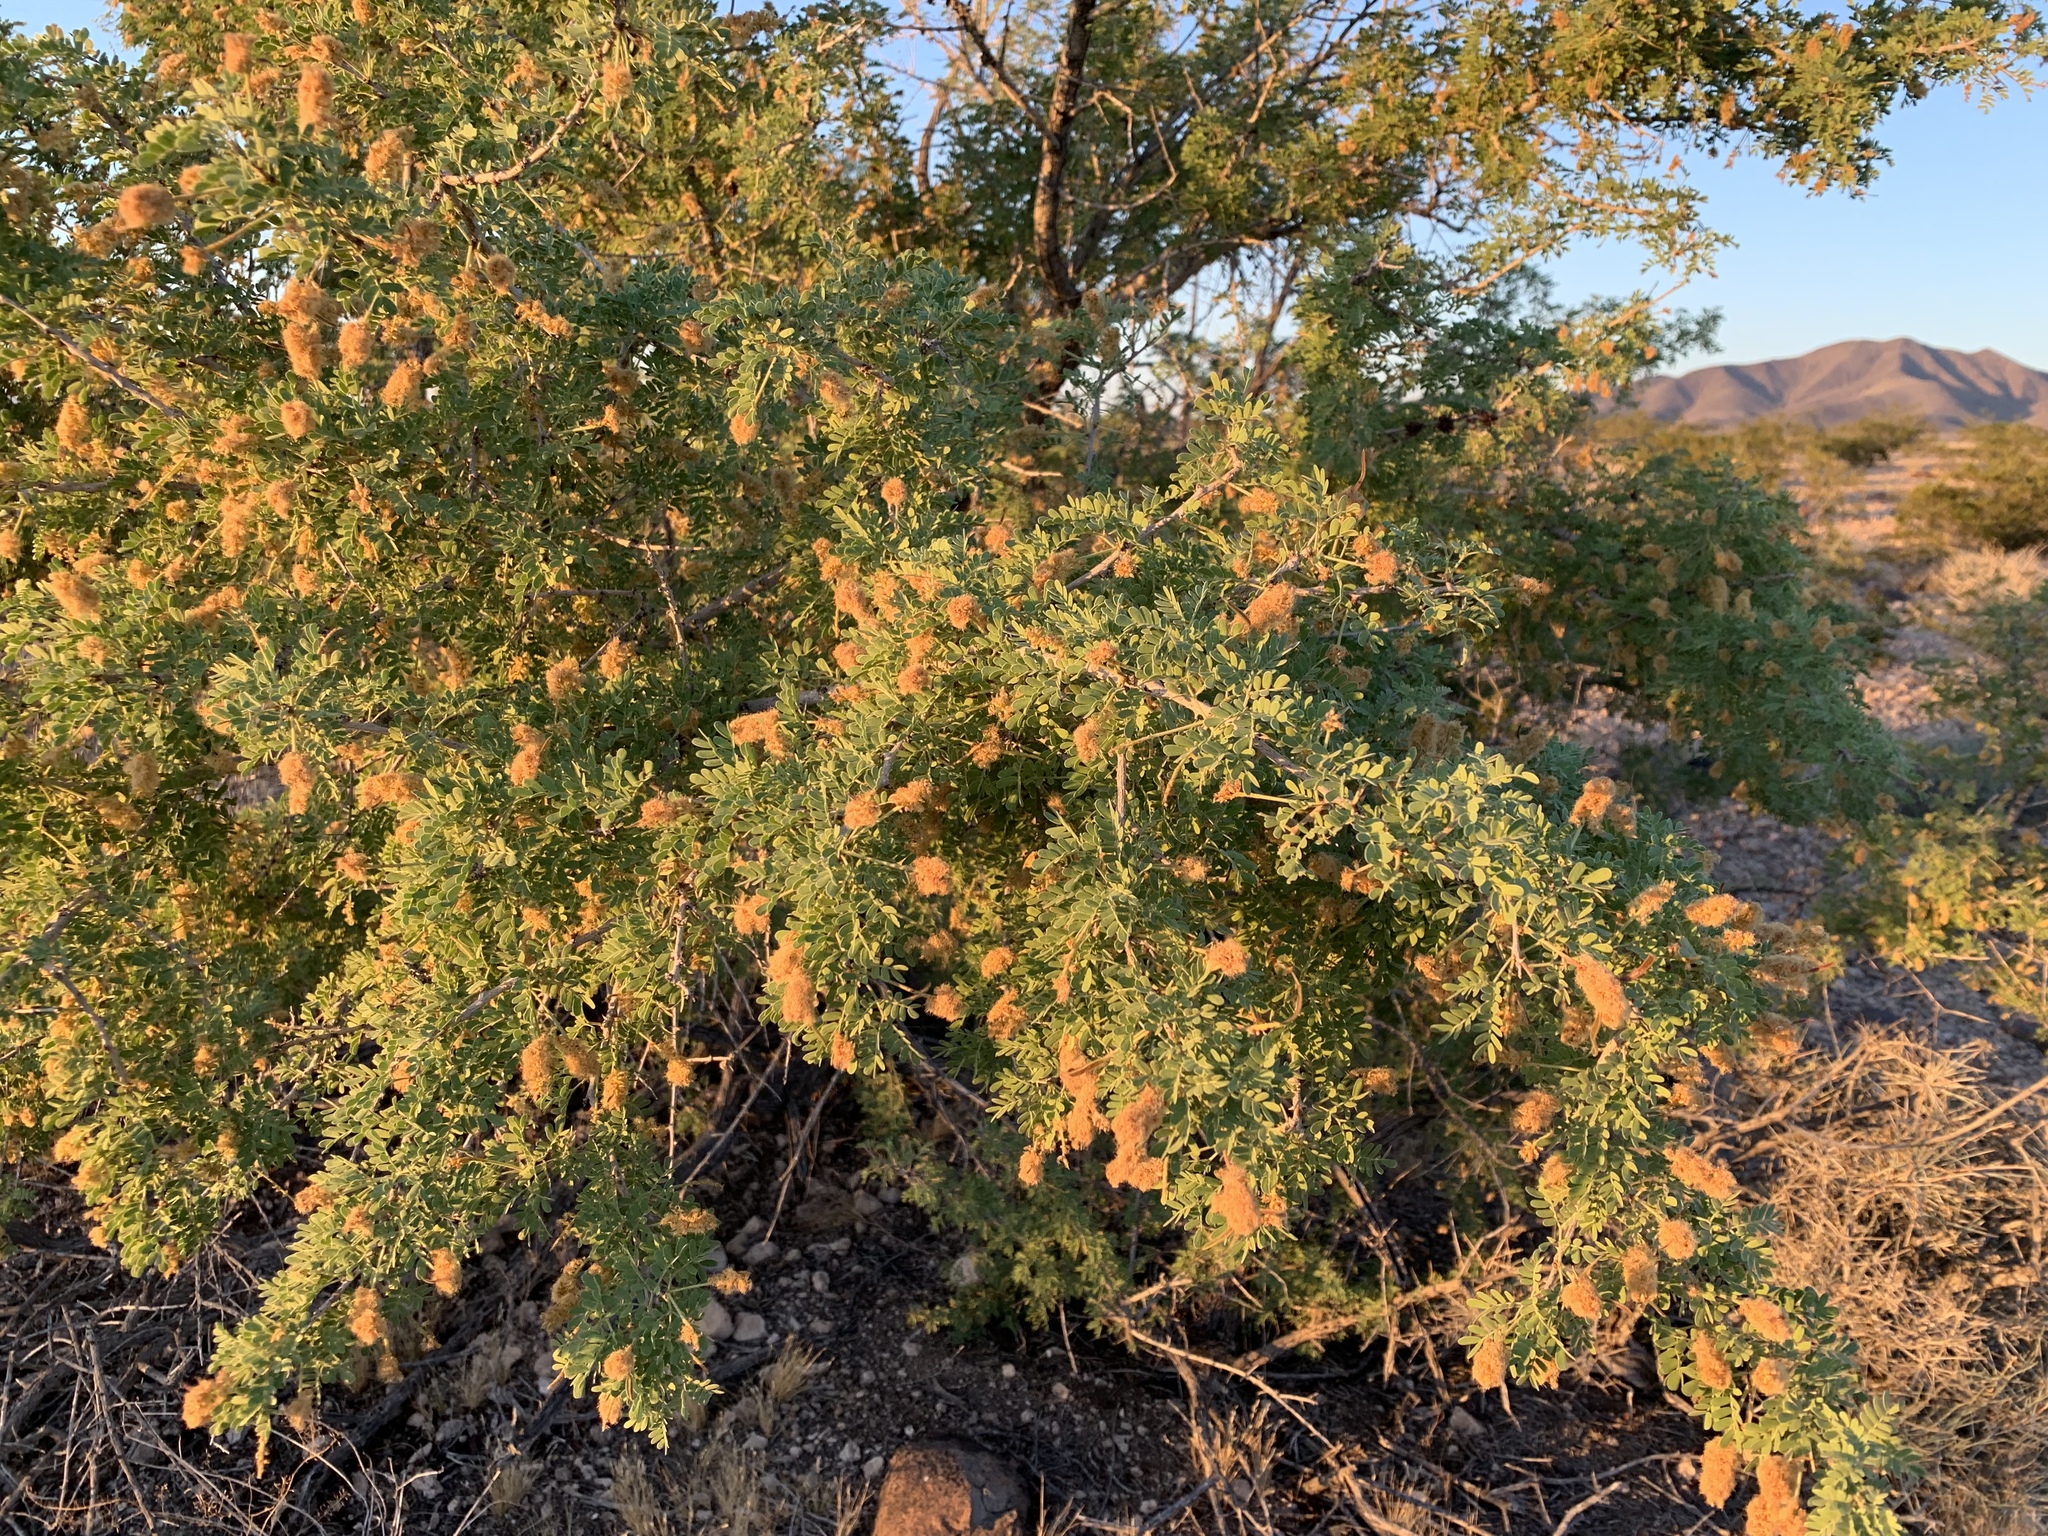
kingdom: Plantae
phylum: Tracheophyta
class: Magnoliopsida
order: Fabales
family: Fabaceae
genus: Senegalia
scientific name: Senegalia greggii
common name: Texas-mimosa
